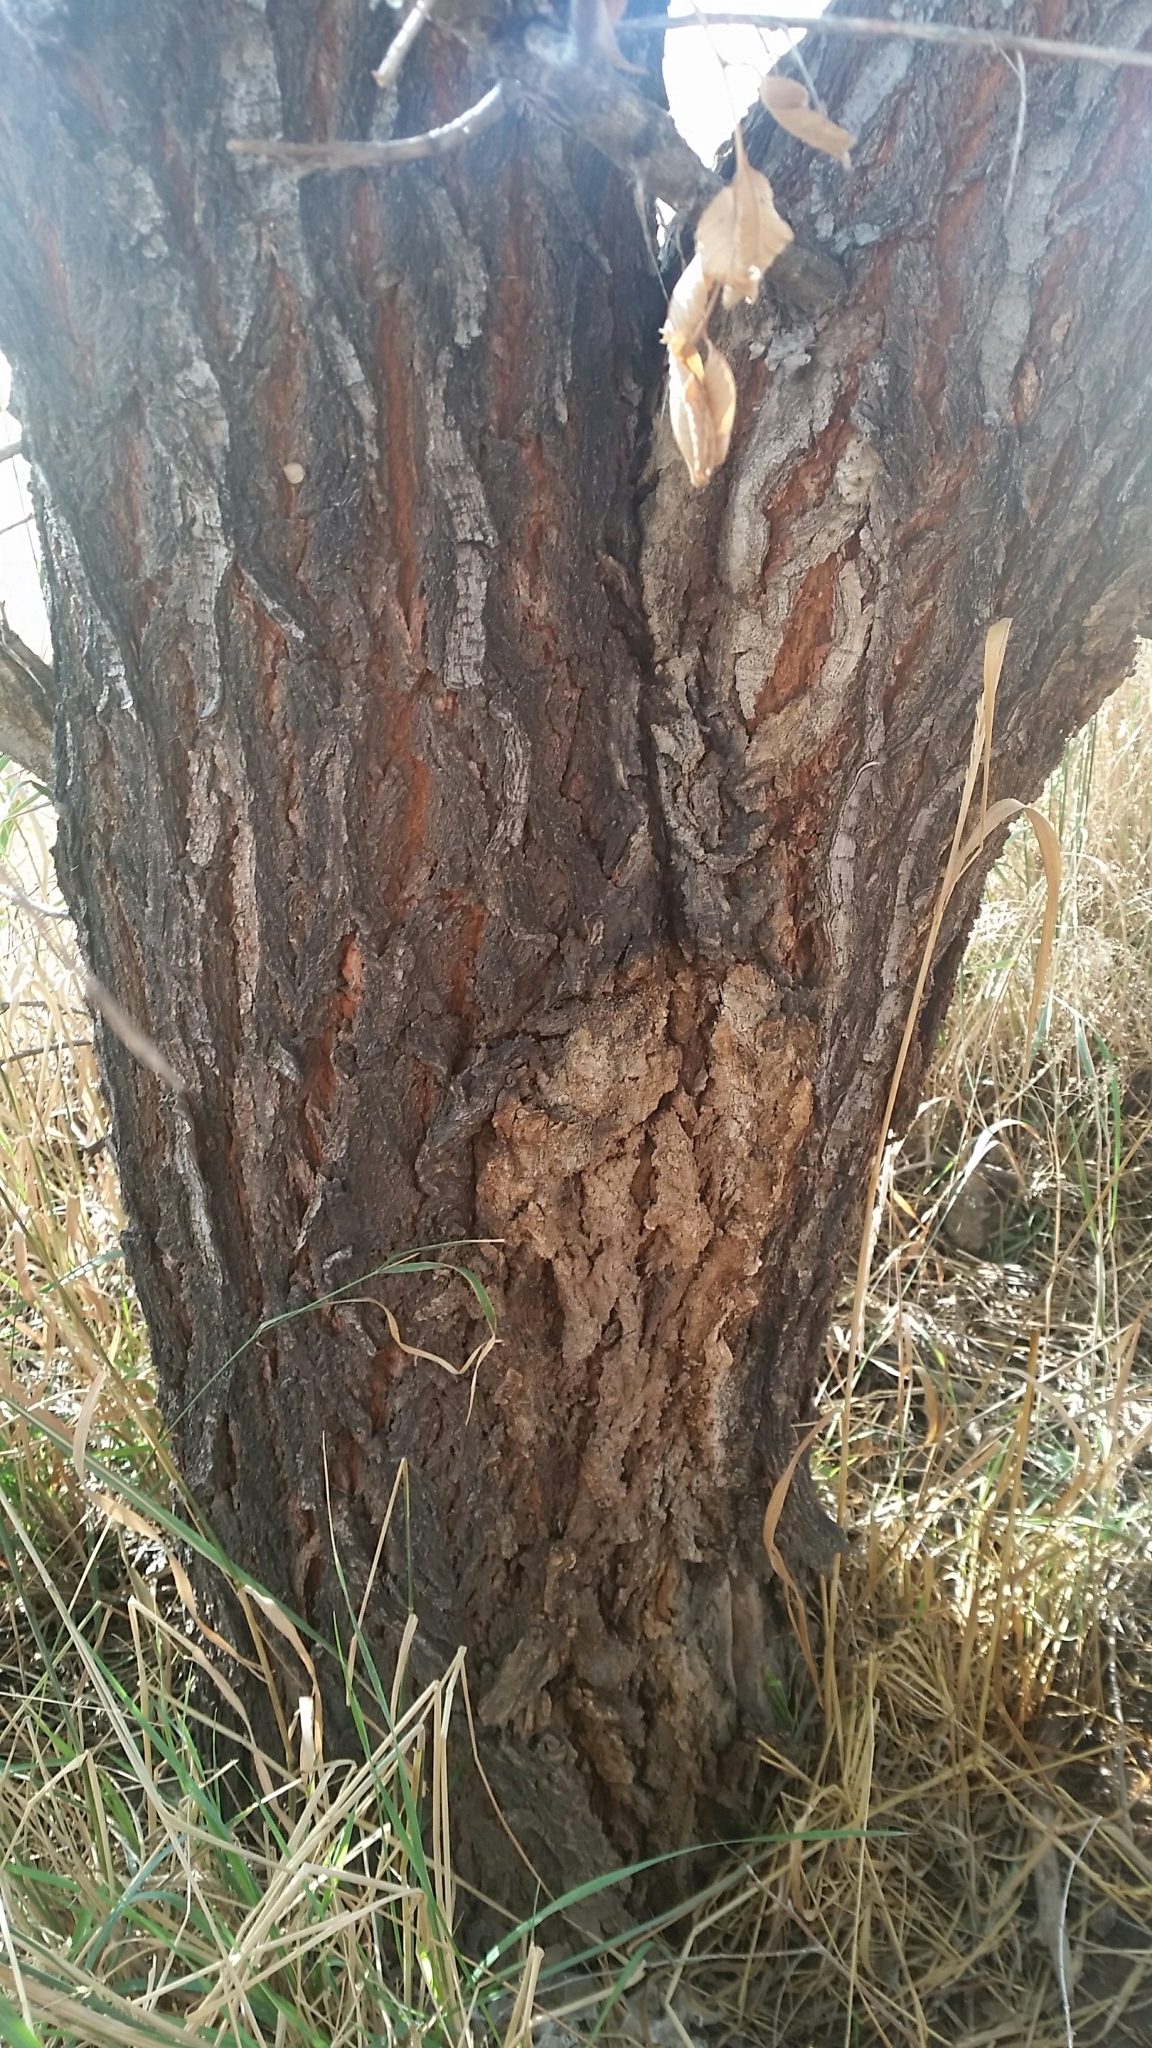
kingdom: Plantae
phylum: Tracheophyta
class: Magnoliopsida
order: Rosales
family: Ulmaceae
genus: Ulmus
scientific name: Ulmus pumila
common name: Siberian elm
